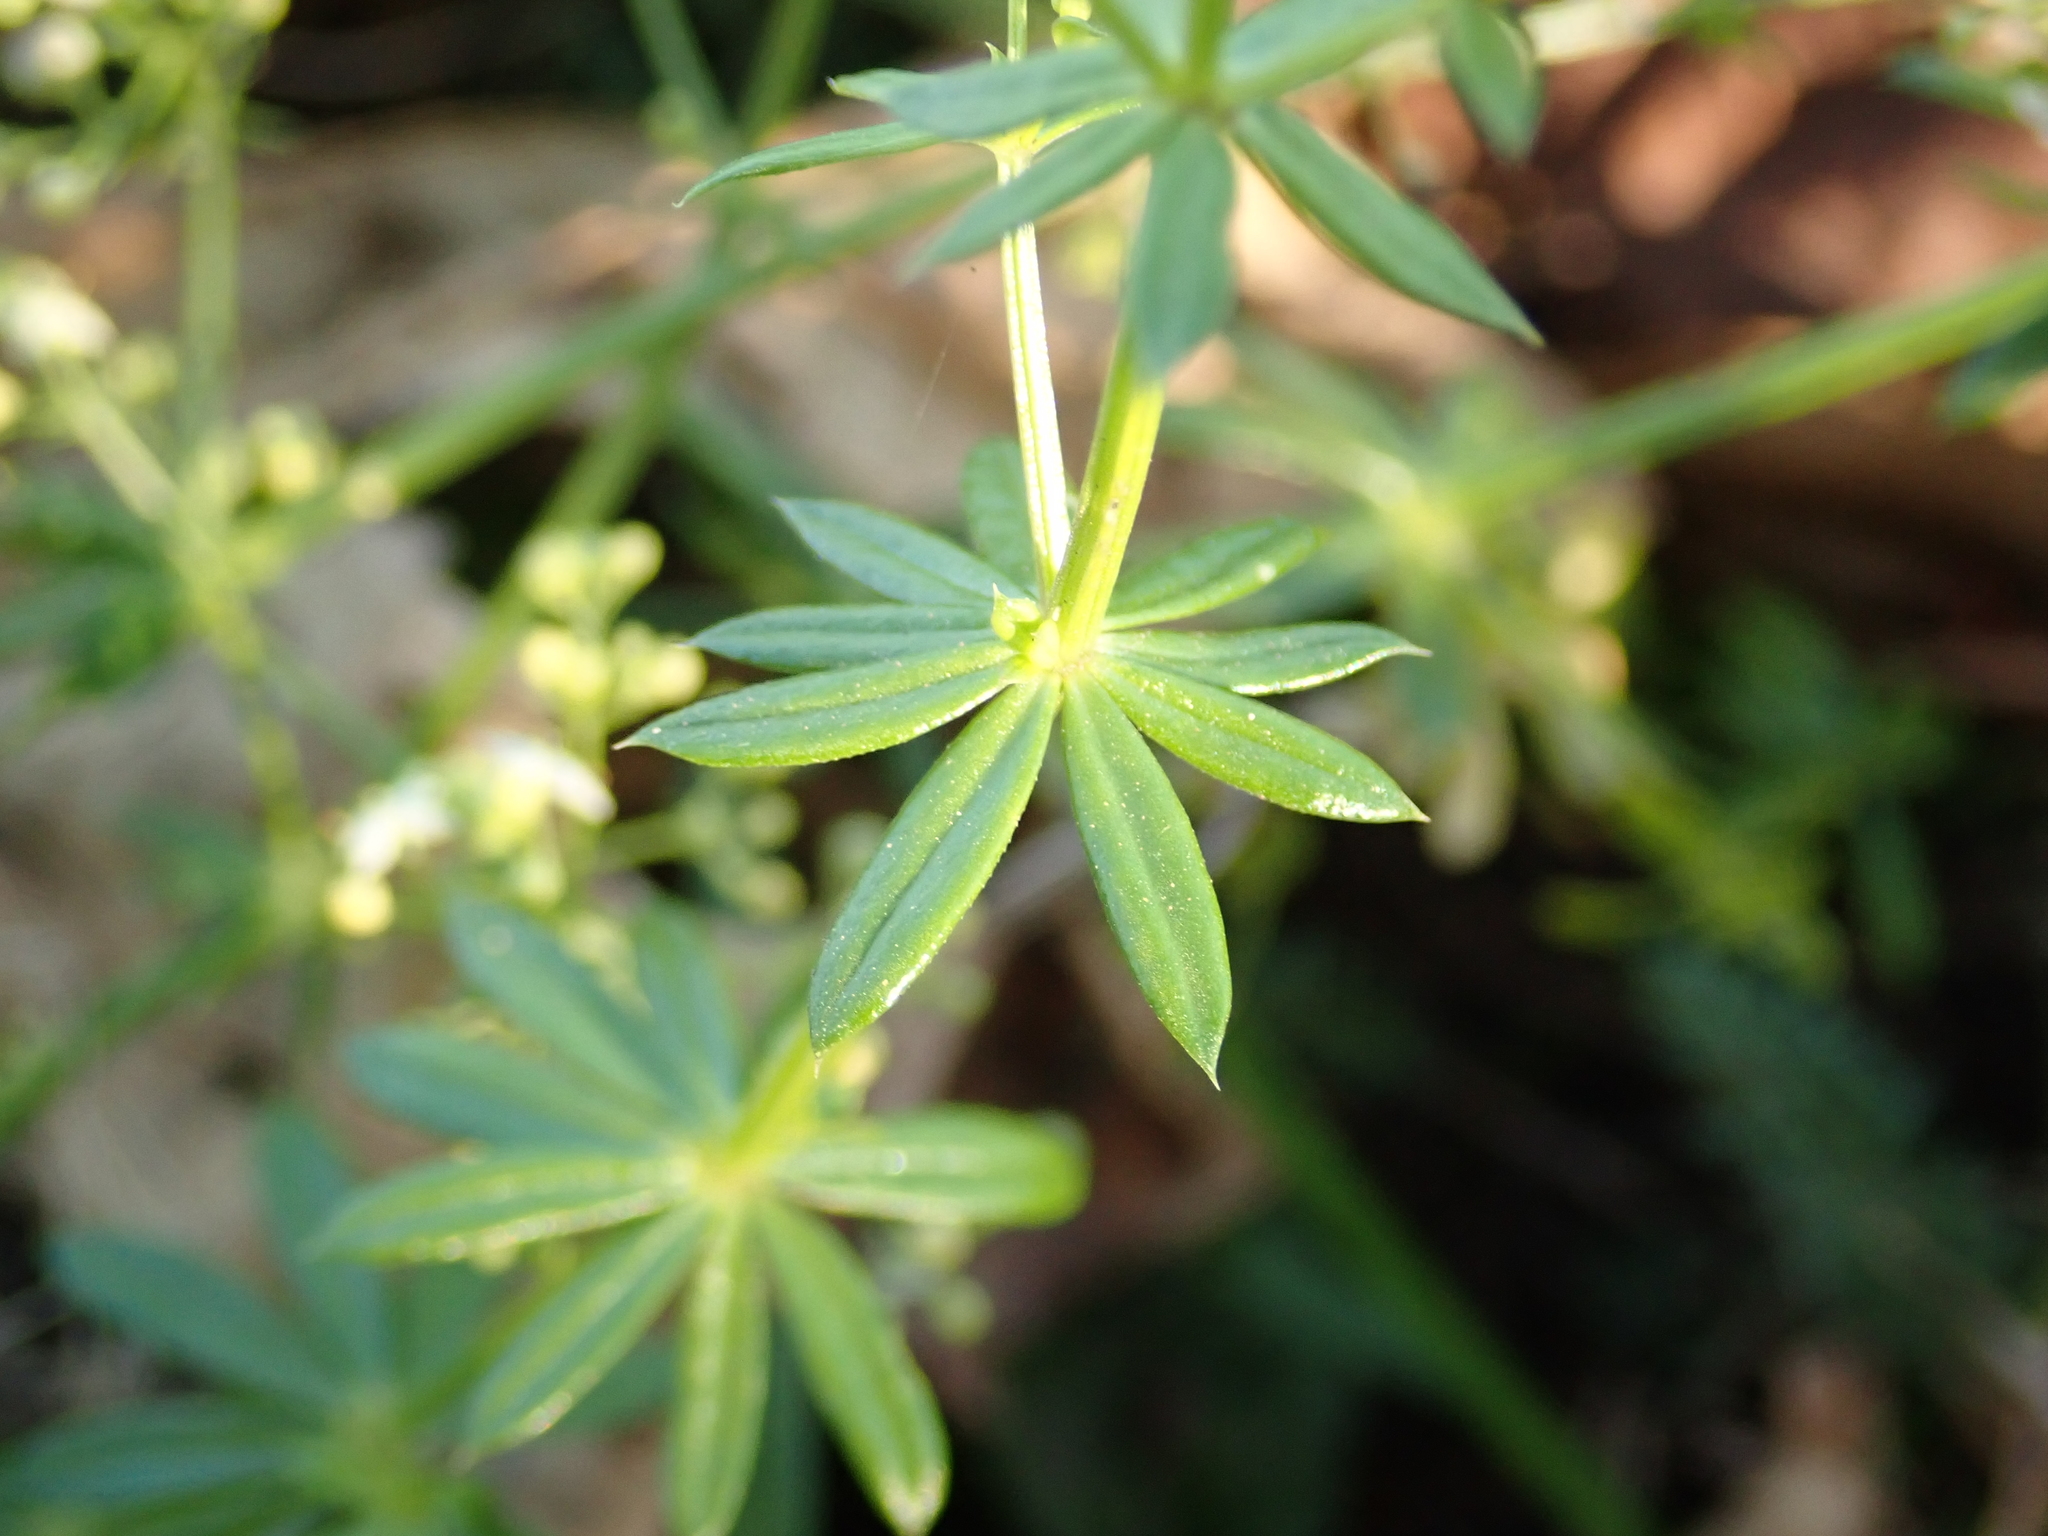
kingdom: Plantae
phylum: Tracheophyta
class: Magnoliopsida
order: Gentianales
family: Rubiaceae
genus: Galium
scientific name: Galium album
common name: White bedstraw
